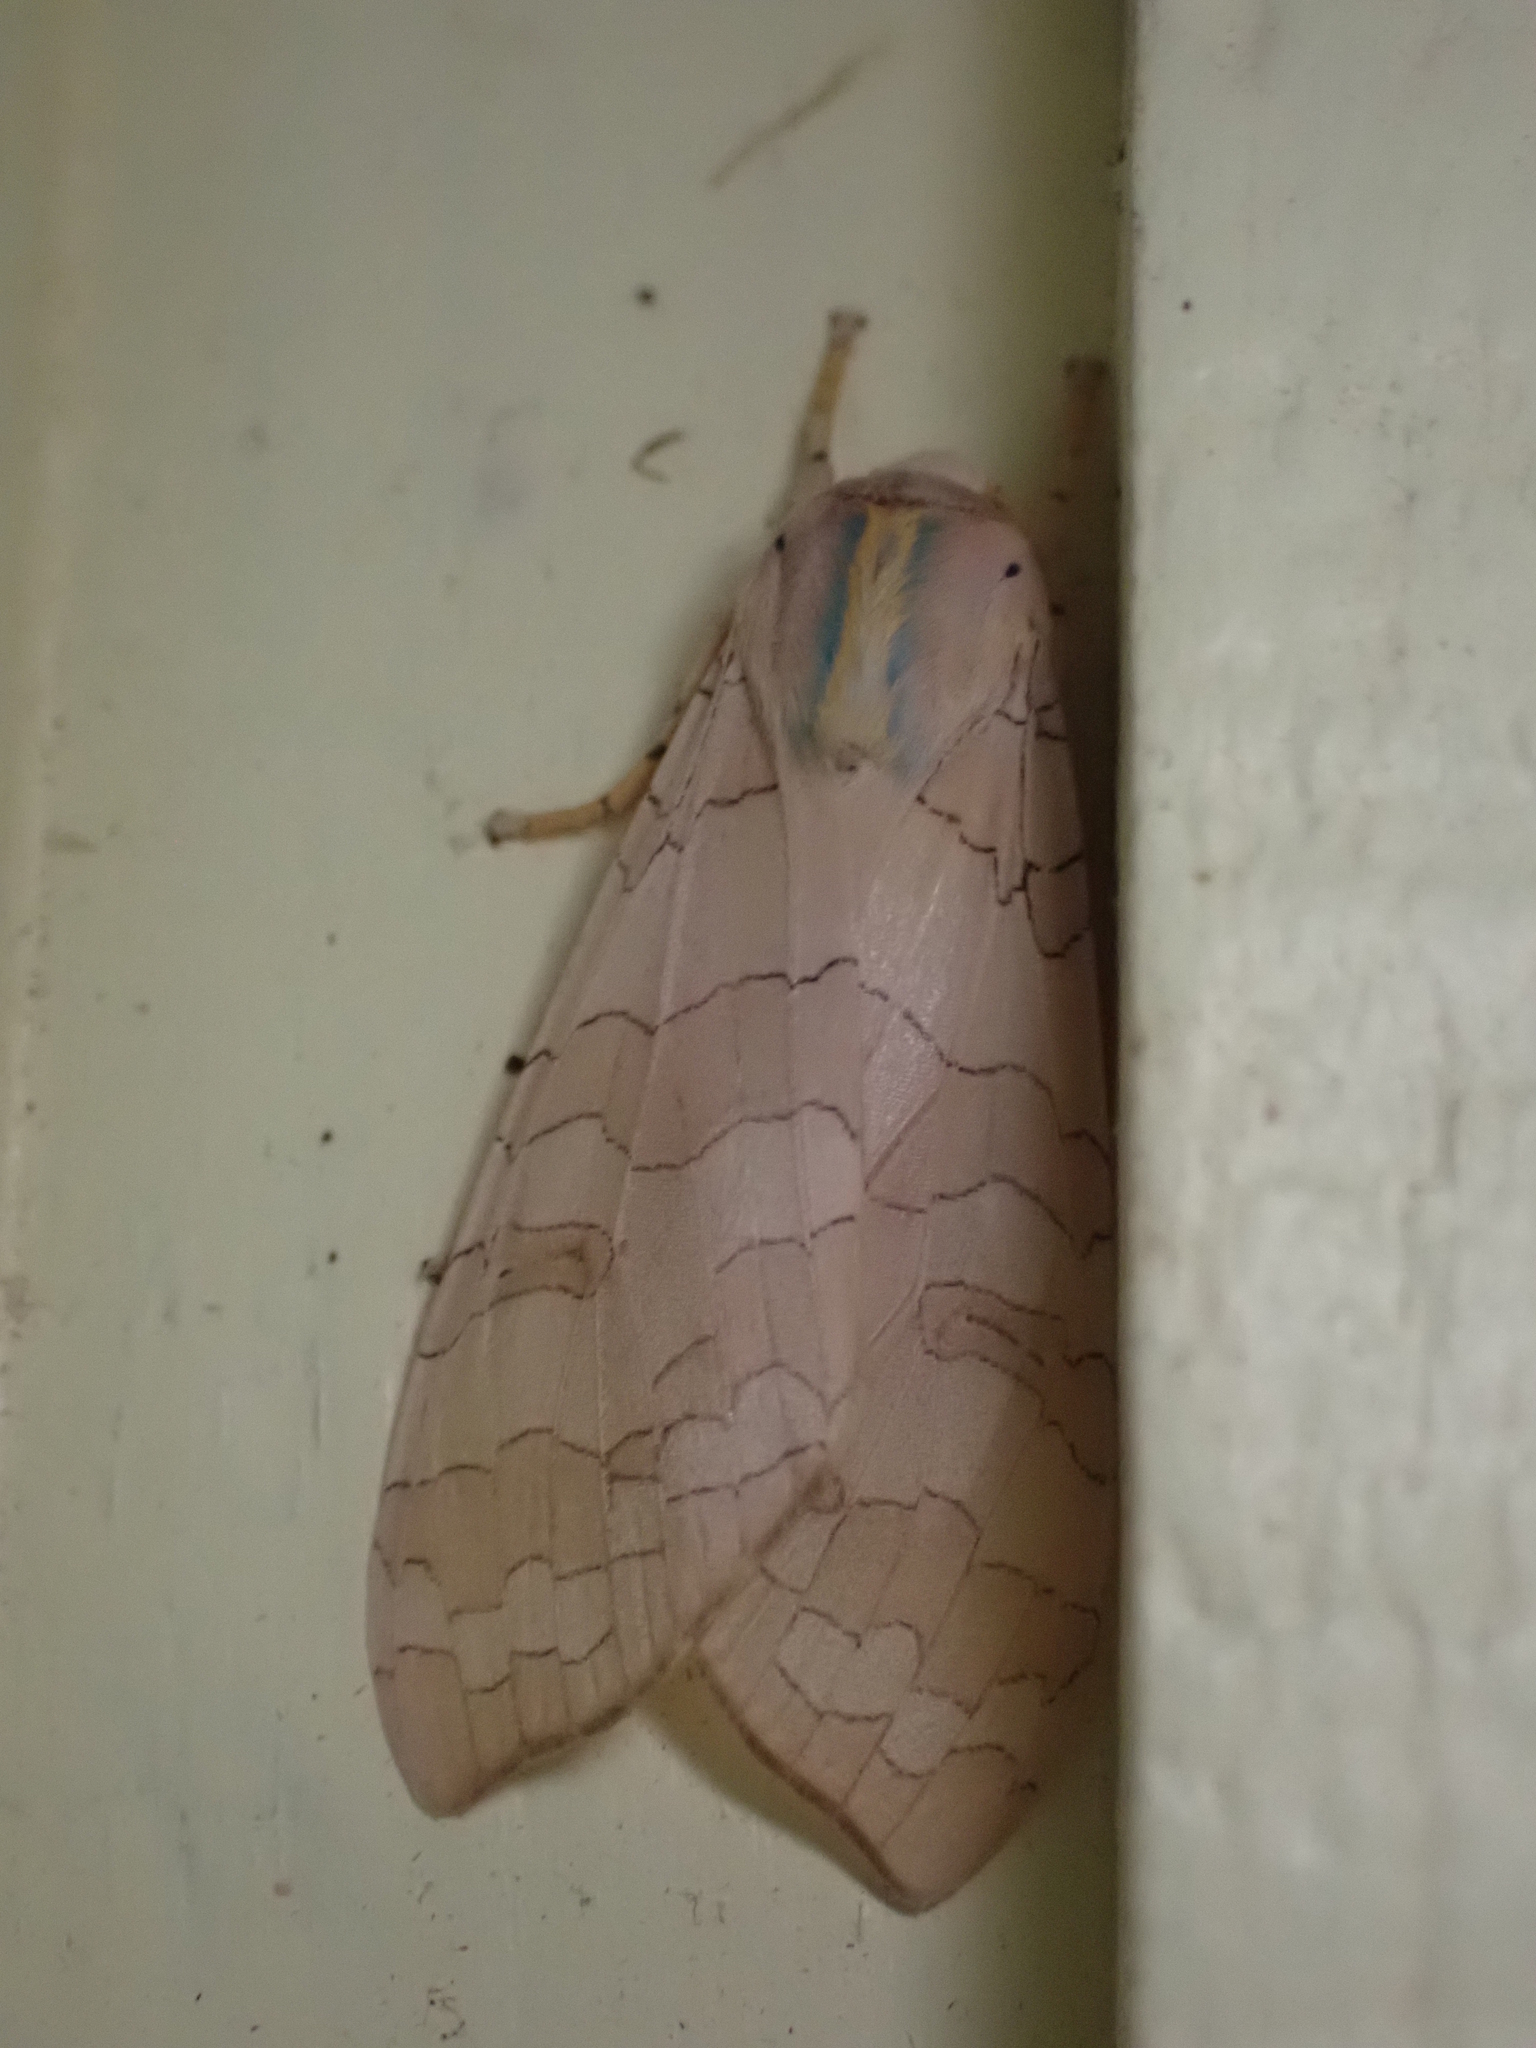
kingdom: Animalia
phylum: Arthropoda
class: Insecta
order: Lepidoptera
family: Erebidae
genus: Halysidota
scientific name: Halysidota tessellaris
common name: Banded tussock moth
